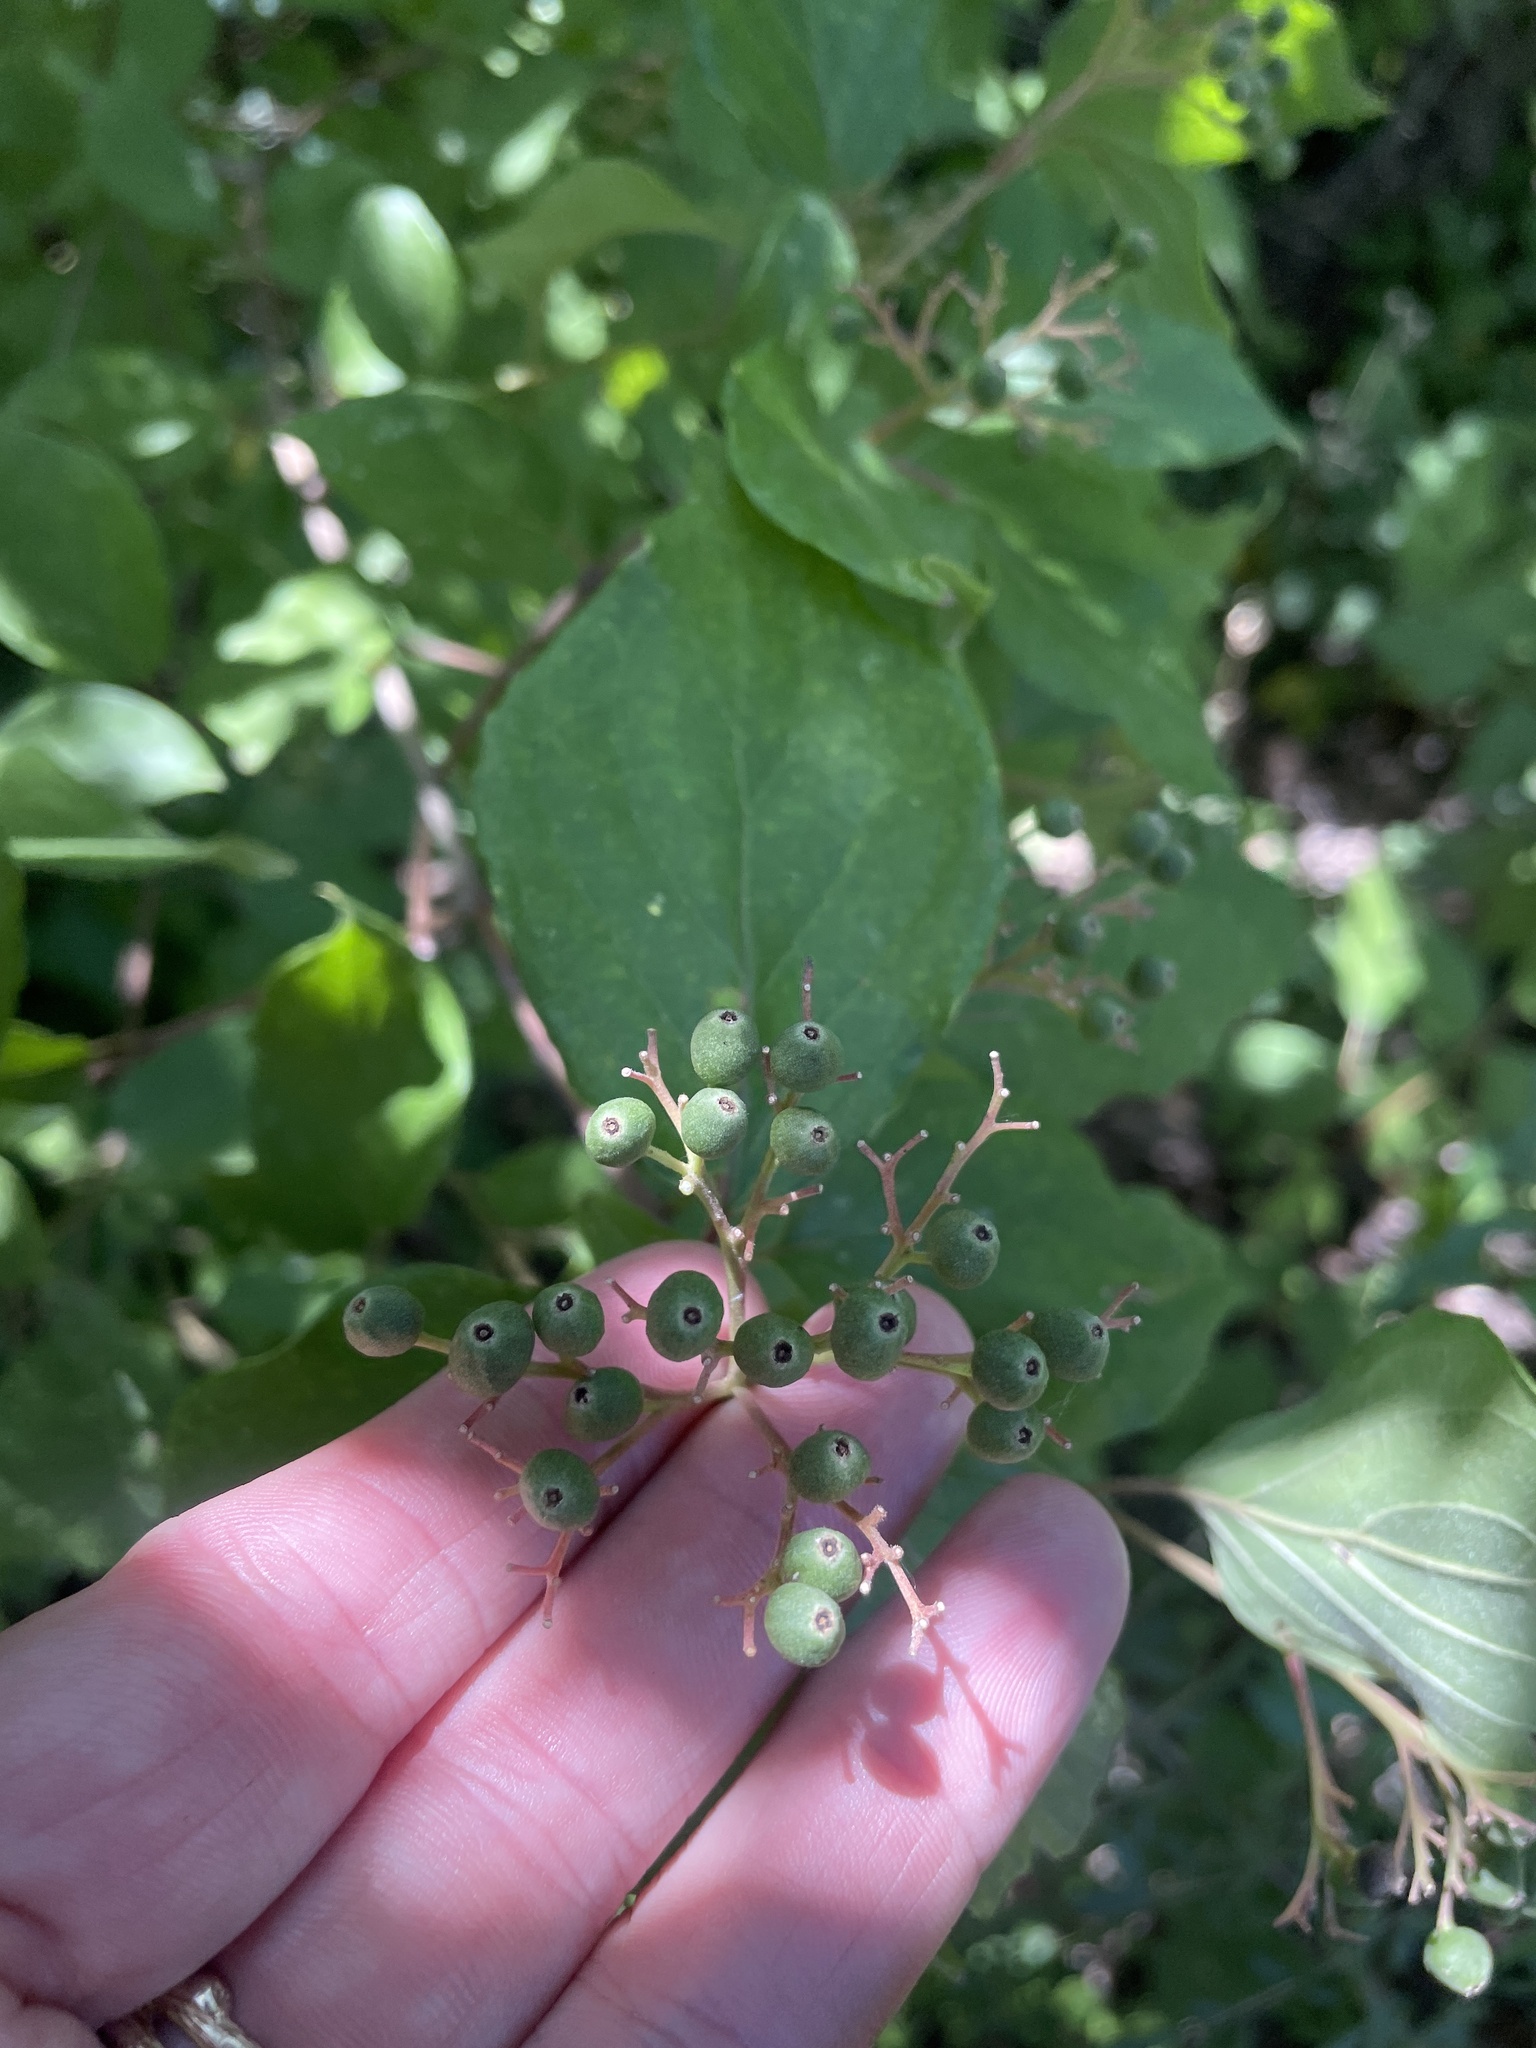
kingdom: Plantae
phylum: Tracheophyta
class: Magnoliopsida
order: Cornales
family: Cornaceae
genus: Cornus
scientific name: Cornus drummondii
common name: Rough-leaf dogwood
